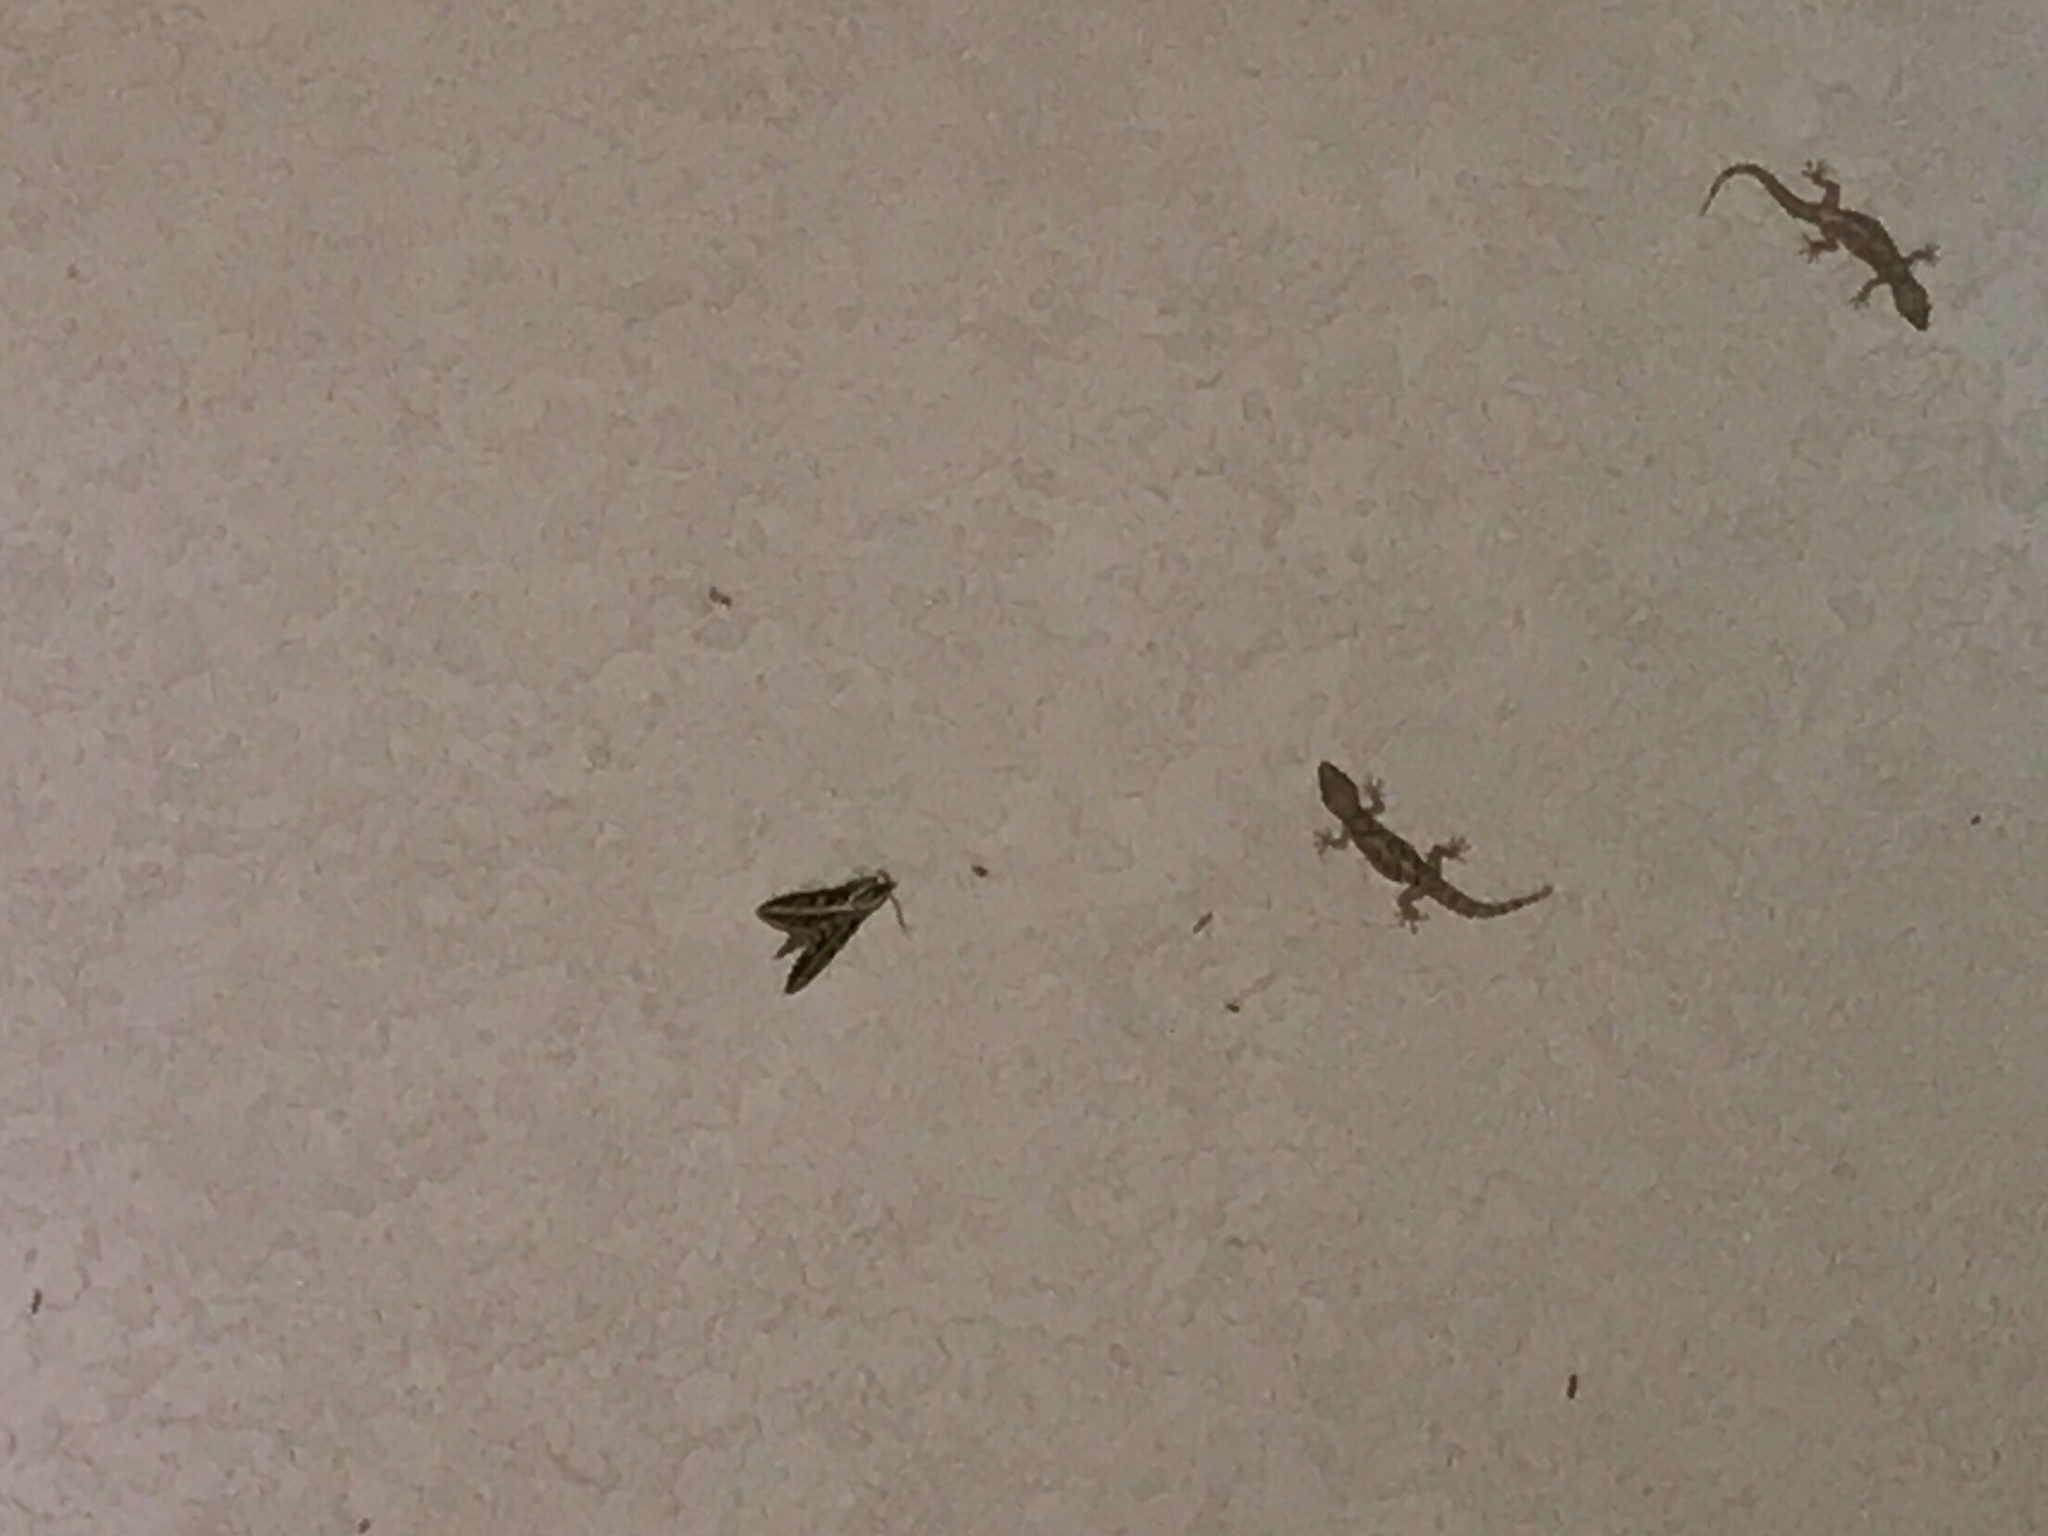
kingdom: Animalia
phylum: Arthropoda
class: Insecta
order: Lepidoptera
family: Sphingidae
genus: Hyles
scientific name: Hyles lineata
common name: White-lined sphinx
